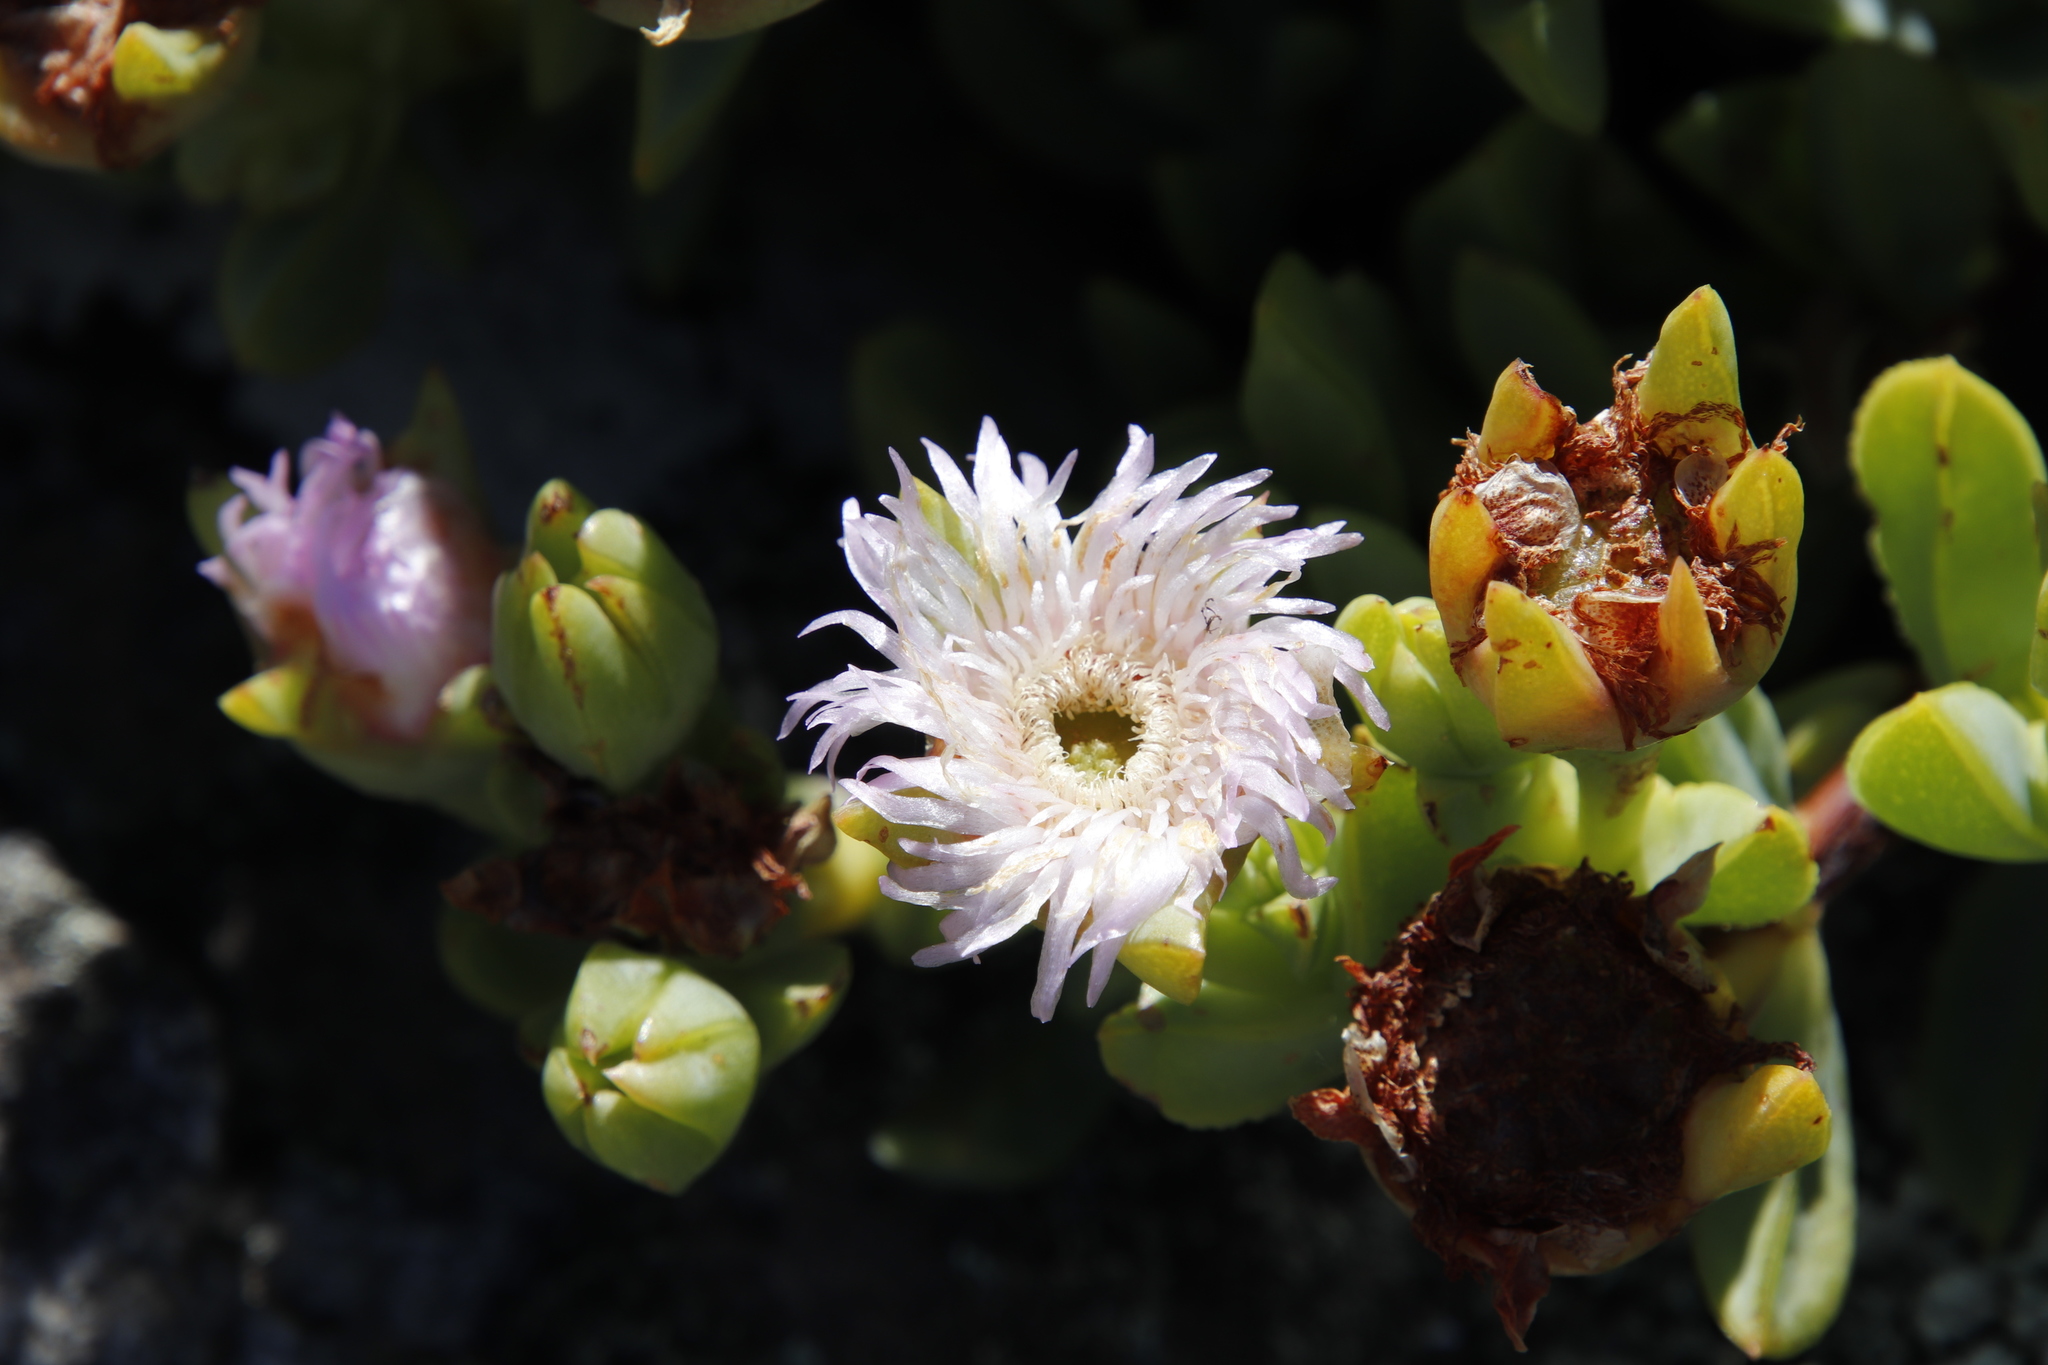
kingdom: Plantae
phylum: Tracheophyta
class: Magnoliopsida
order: Caryophyllales
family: Aizoaceae
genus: Erepsia
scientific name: Erepsia heteropetala
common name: Lesser sea-fig
